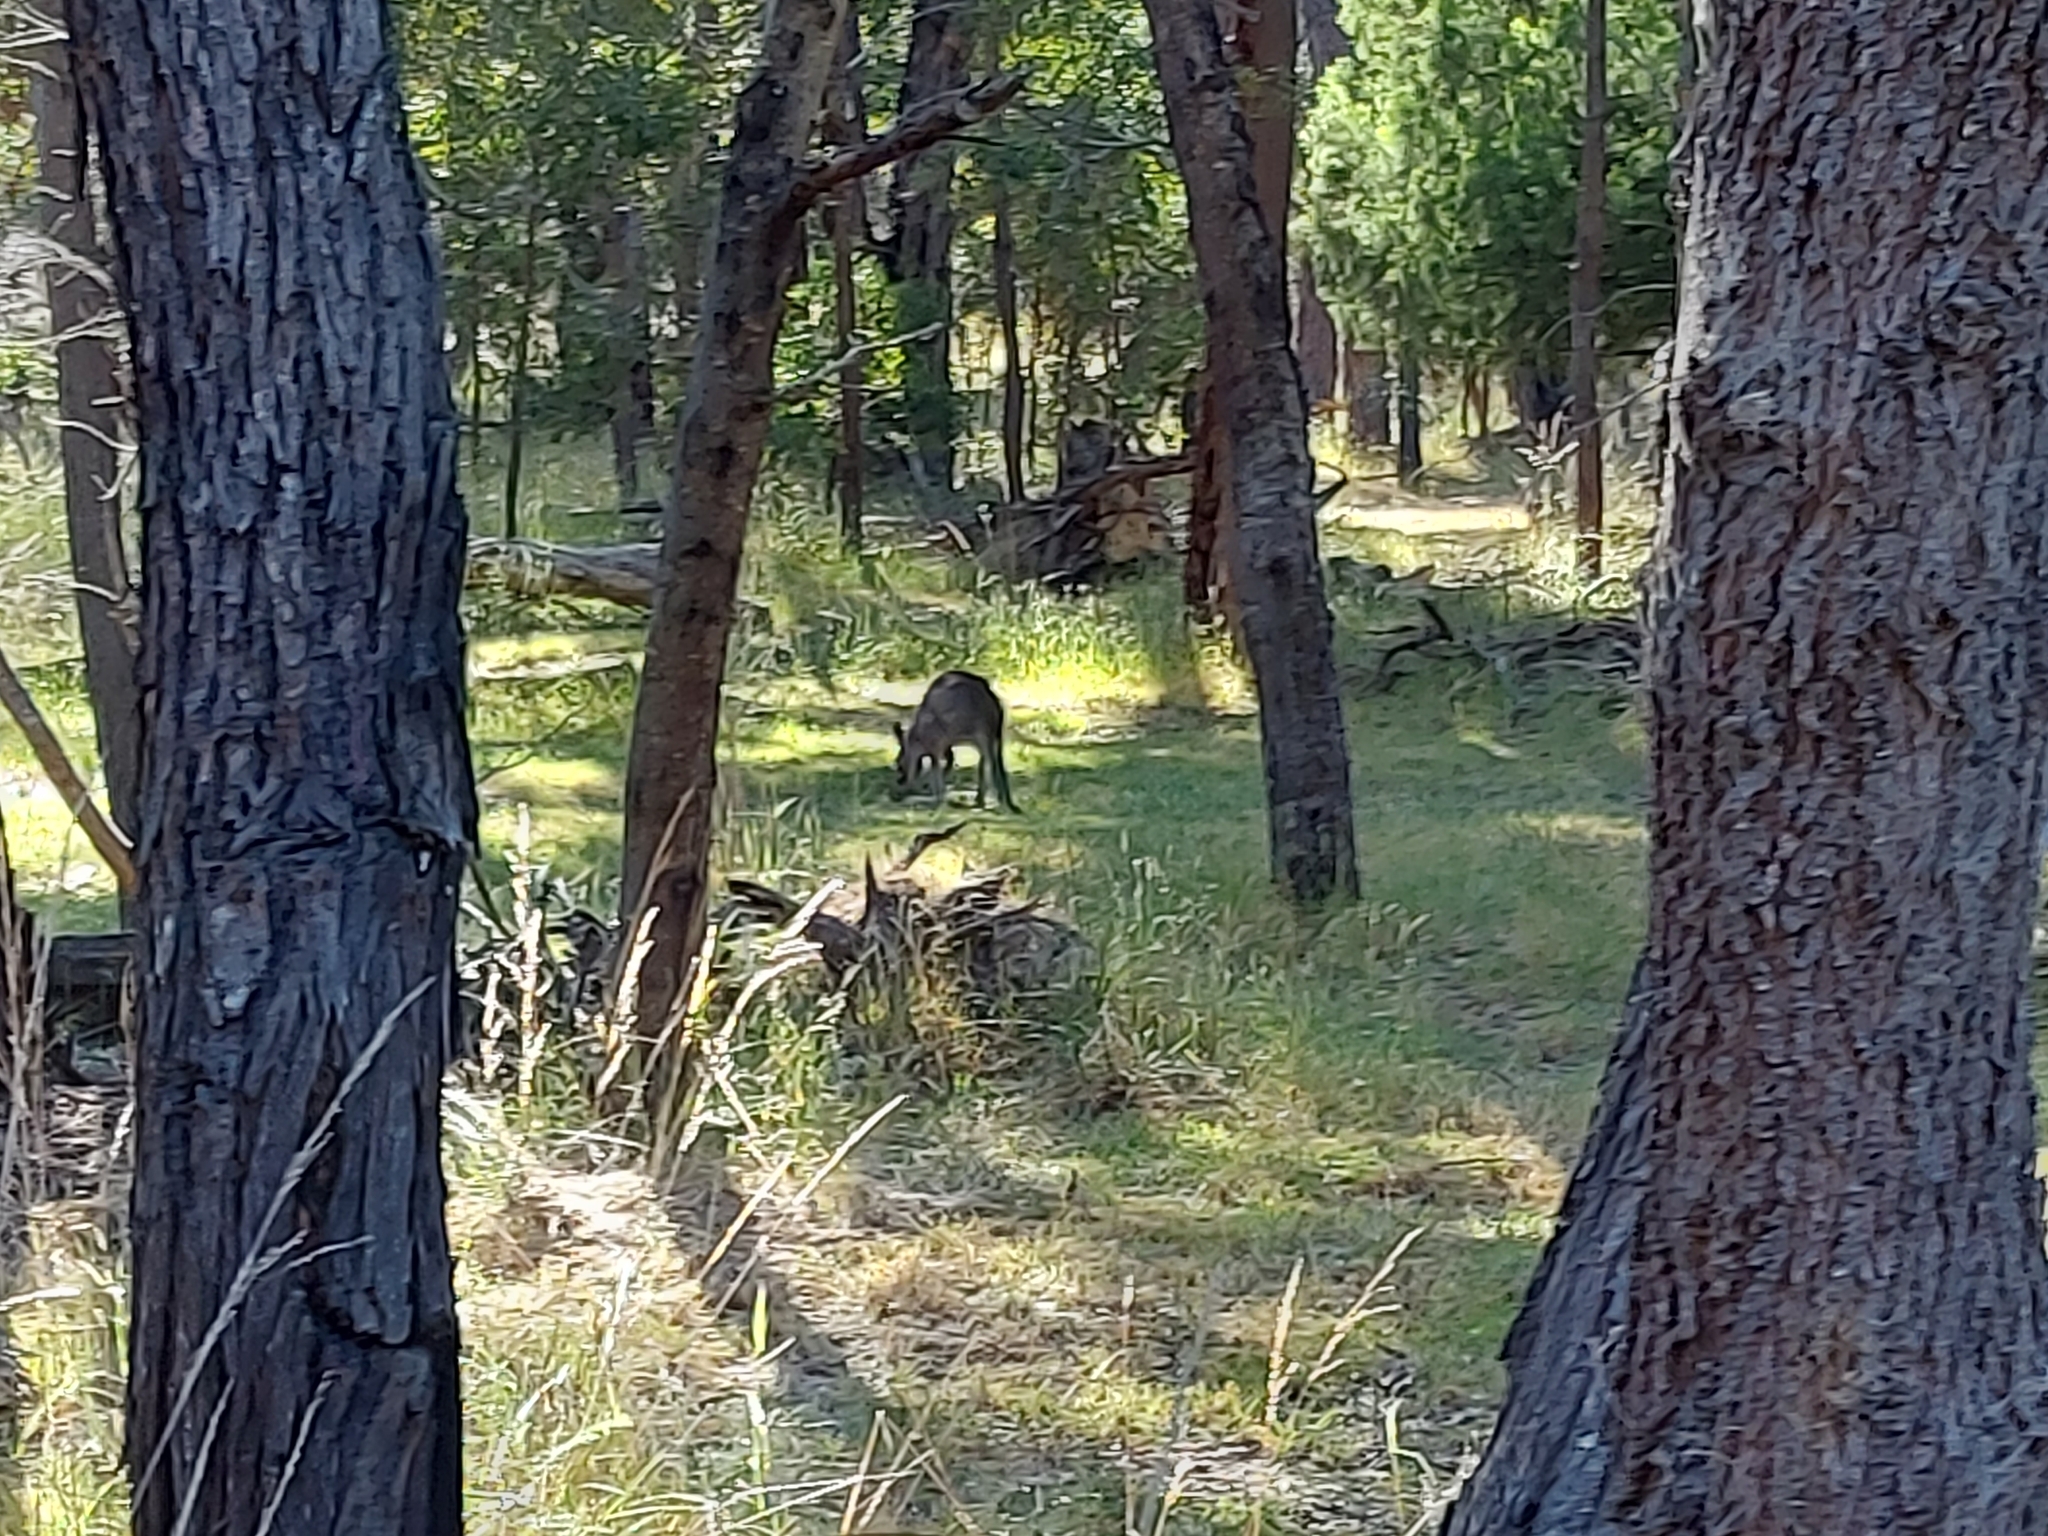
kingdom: Animalia
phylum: Chordata
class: Mammalia
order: Diprotodontia
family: Macropodidae
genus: Macropus
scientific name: Macropus giganteus
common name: Eastern grey kangaroo
